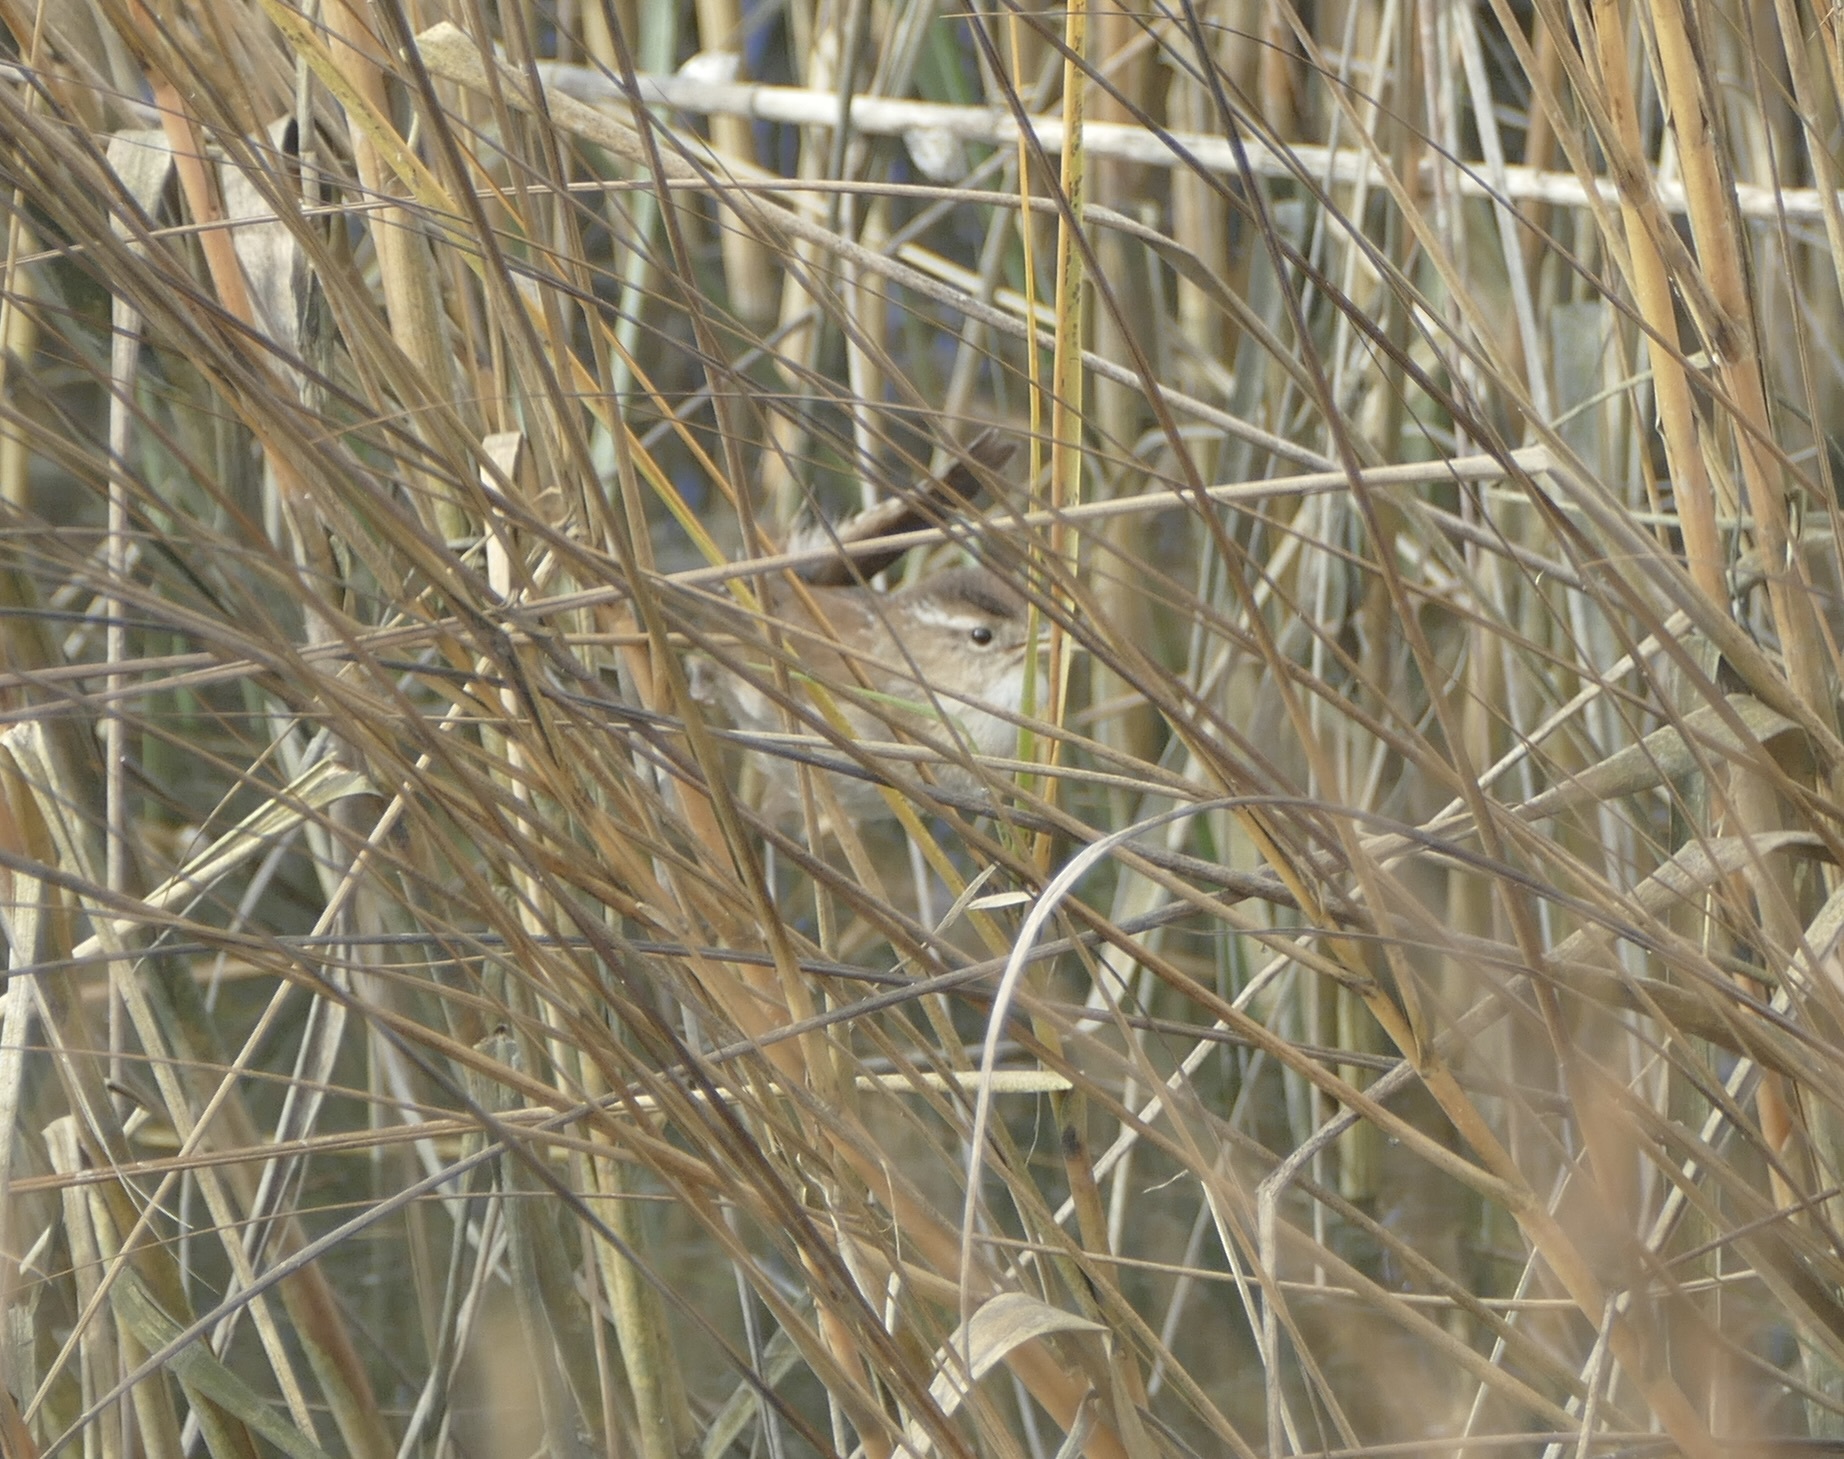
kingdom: Animalia
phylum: Chordata
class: Aves
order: Passeriformes
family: Troglodytidae
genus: Cistothorus
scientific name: Cistothorus palustris
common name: Marsh wren
